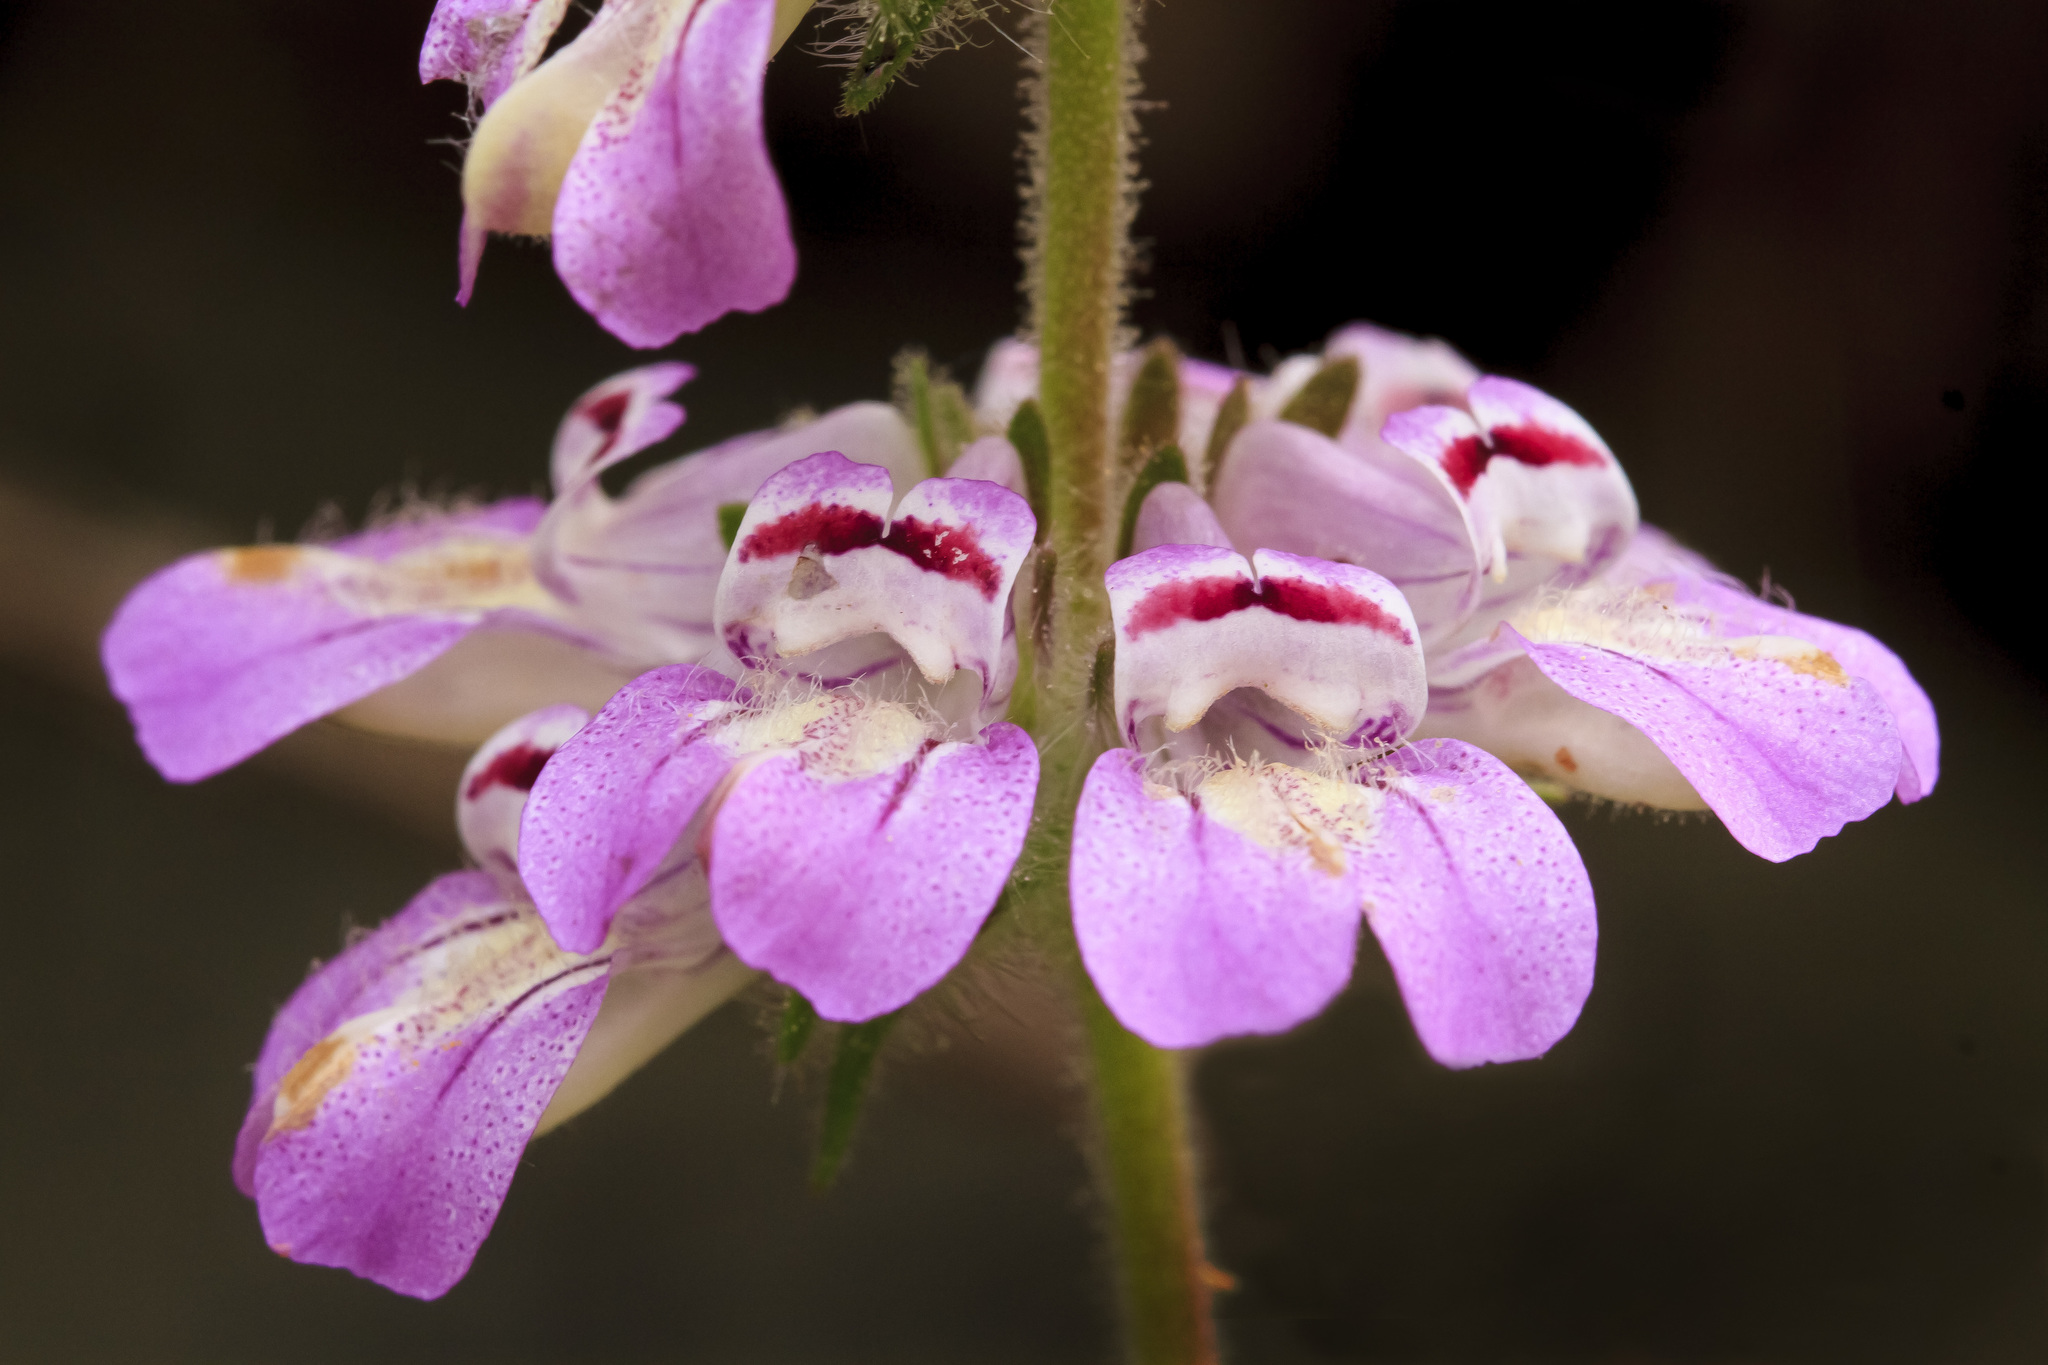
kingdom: Plantae
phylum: Tracheophyta
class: Magnoliopsida
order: Lamiales
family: Plantaginaceae
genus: Collinsia
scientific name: Collinsia tinctoria
